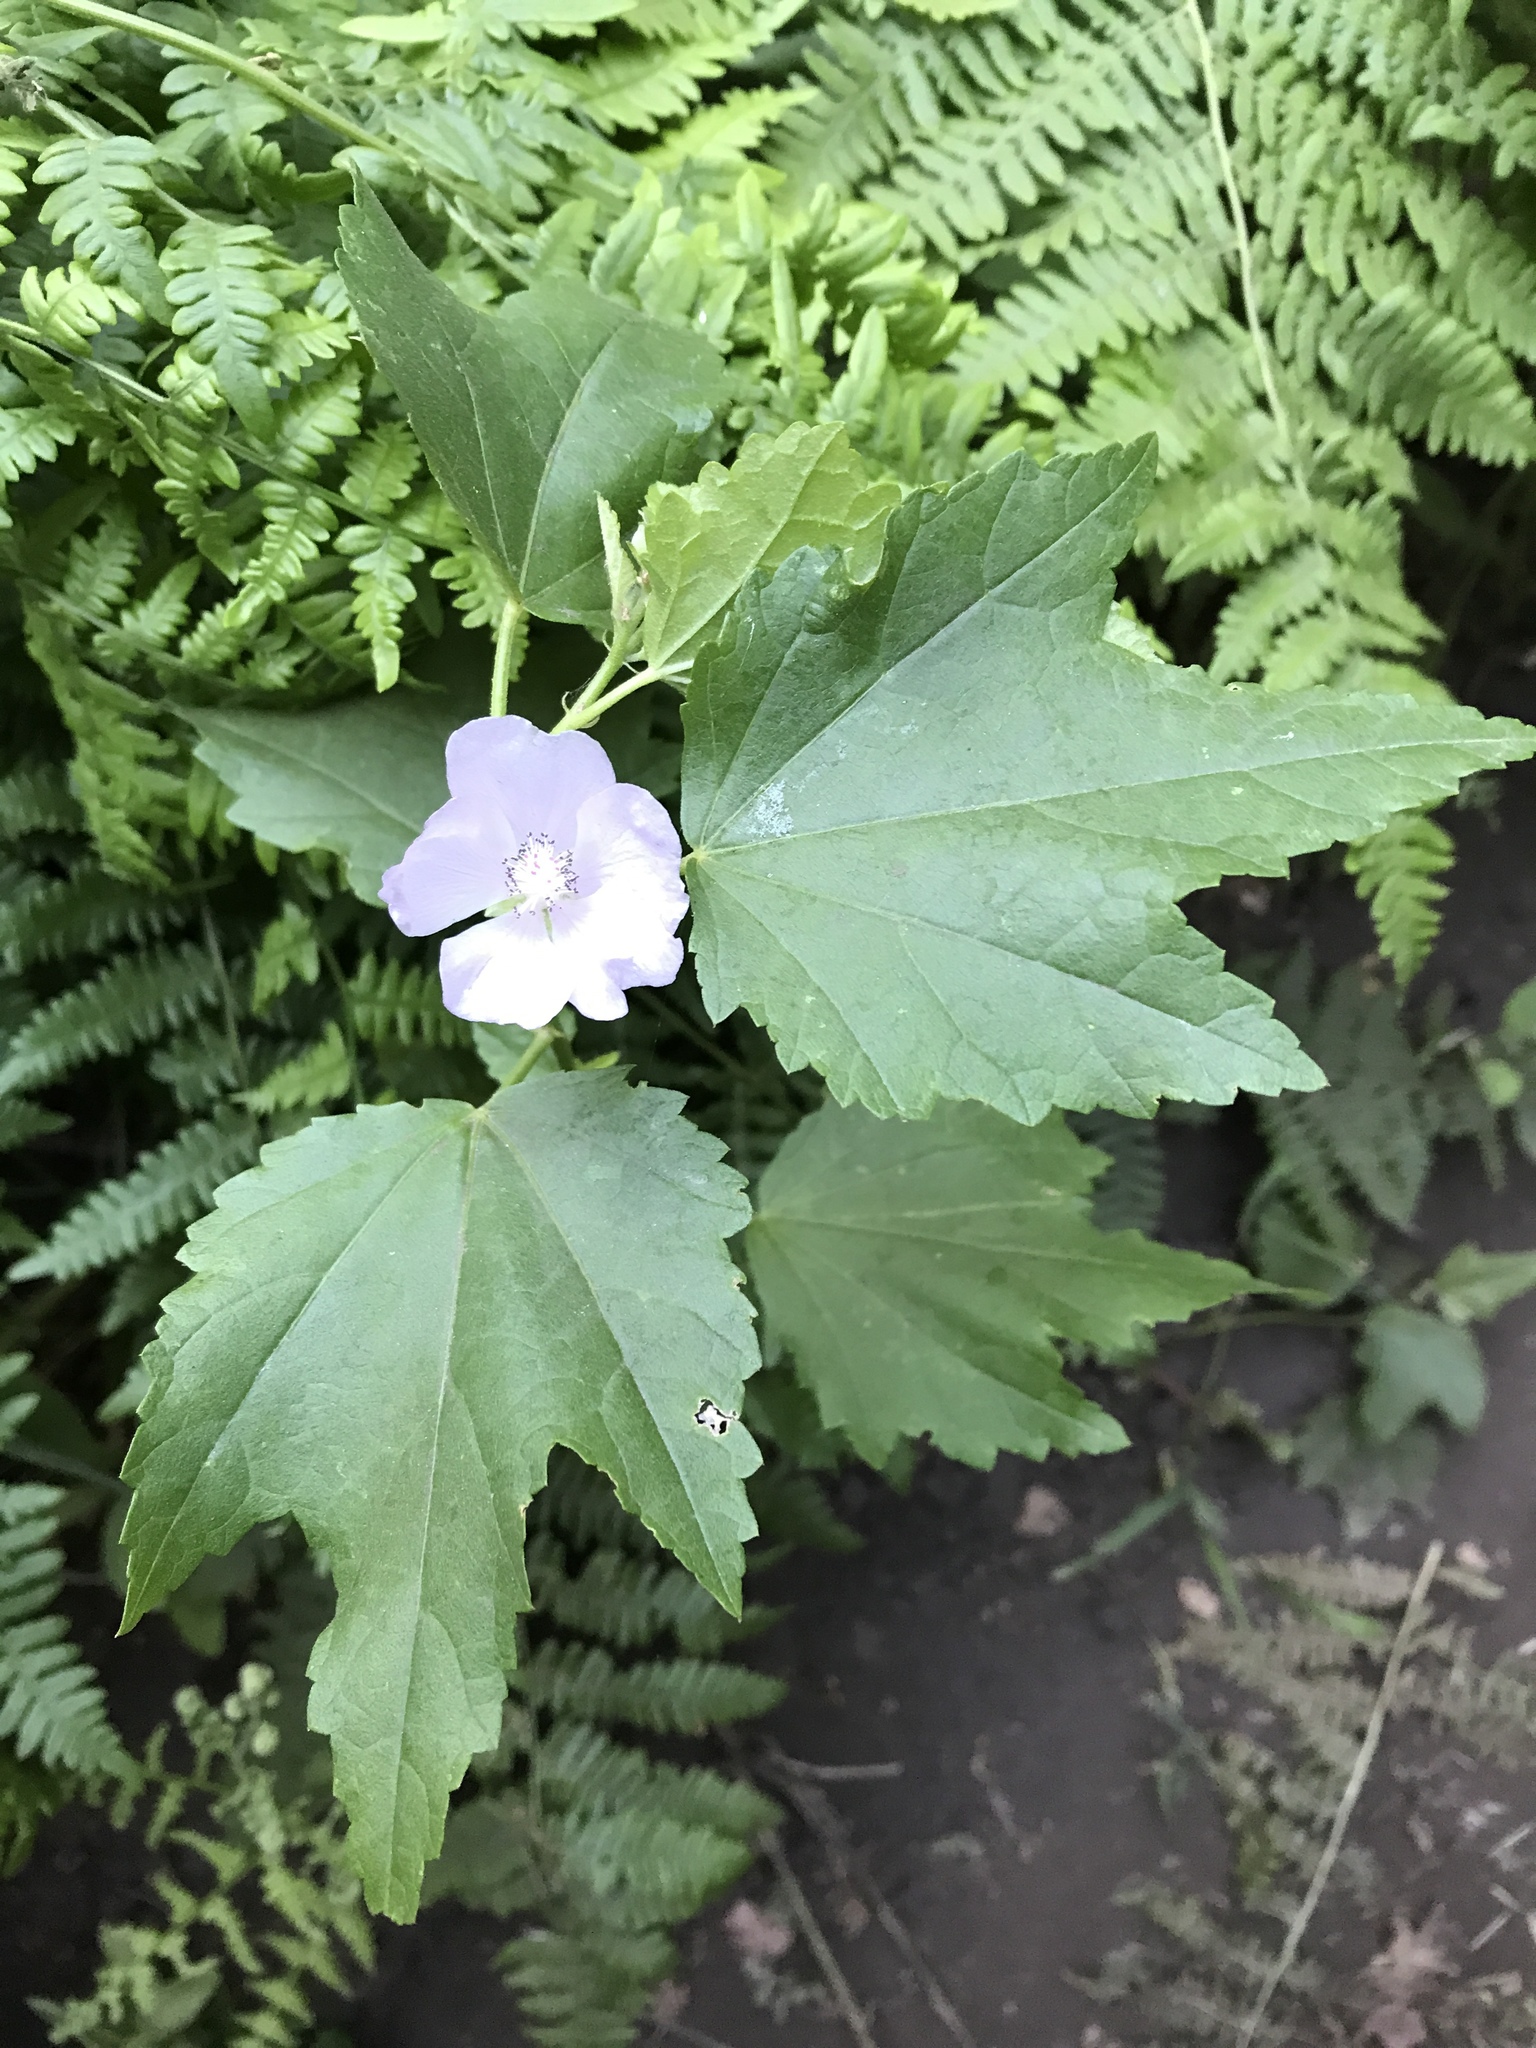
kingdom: Plantae
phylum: Tracheophyta
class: Magnoliopsida
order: Malvales
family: Malvaceae
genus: Iliamna
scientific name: Iliamna rivularis
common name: Wild hollyhock
